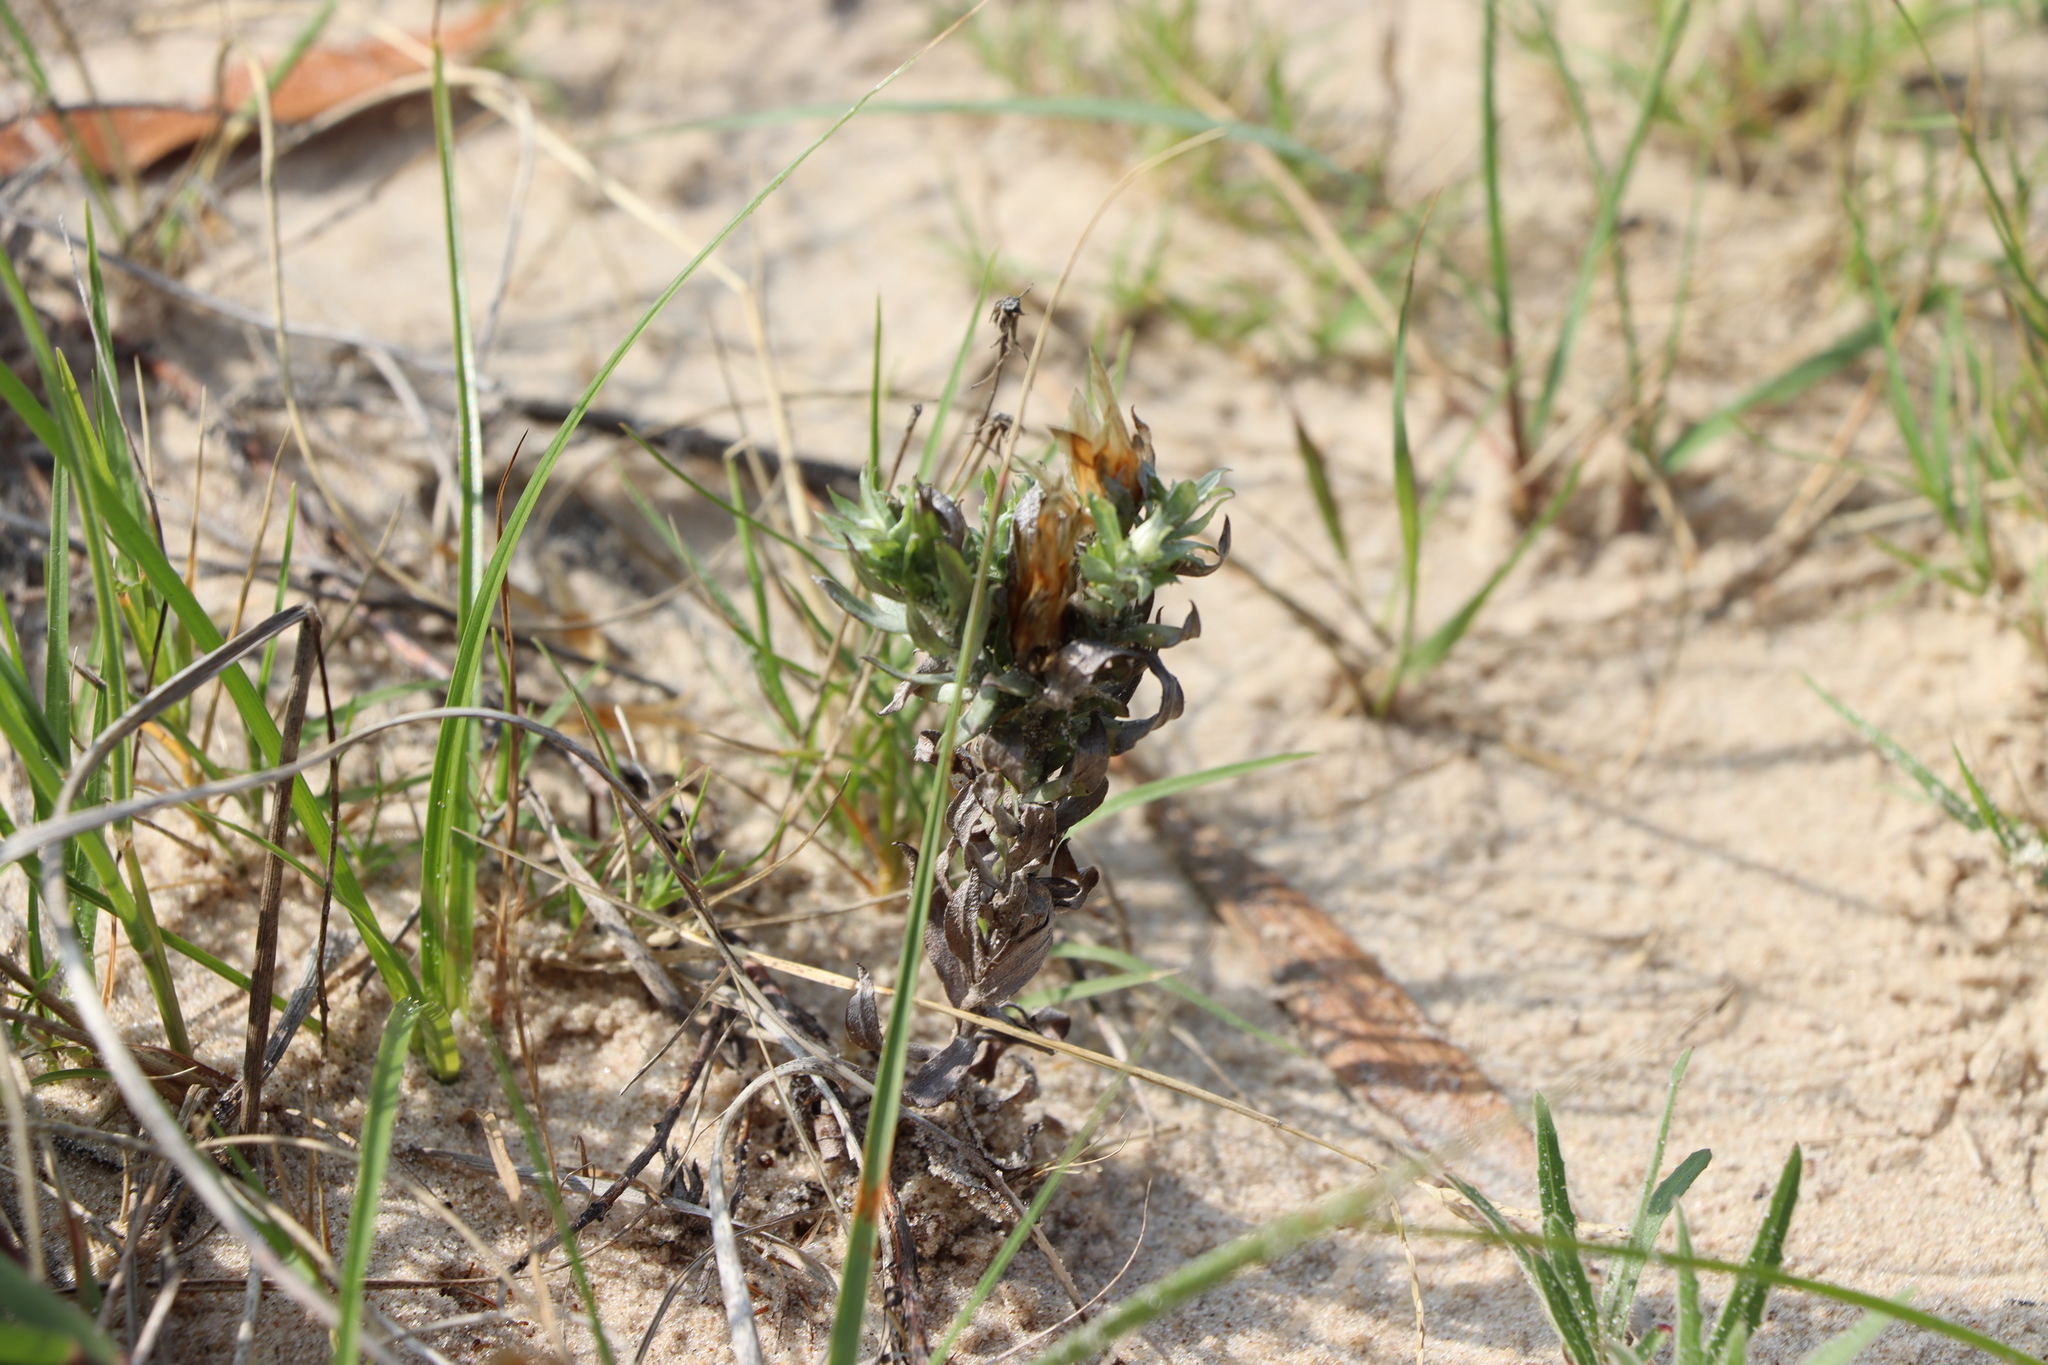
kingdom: Plantae
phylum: Tracheophyta
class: Magnoliopsida
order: Asterales
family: Asteraceae
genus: Lucilia
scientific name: Lucilia nitens
